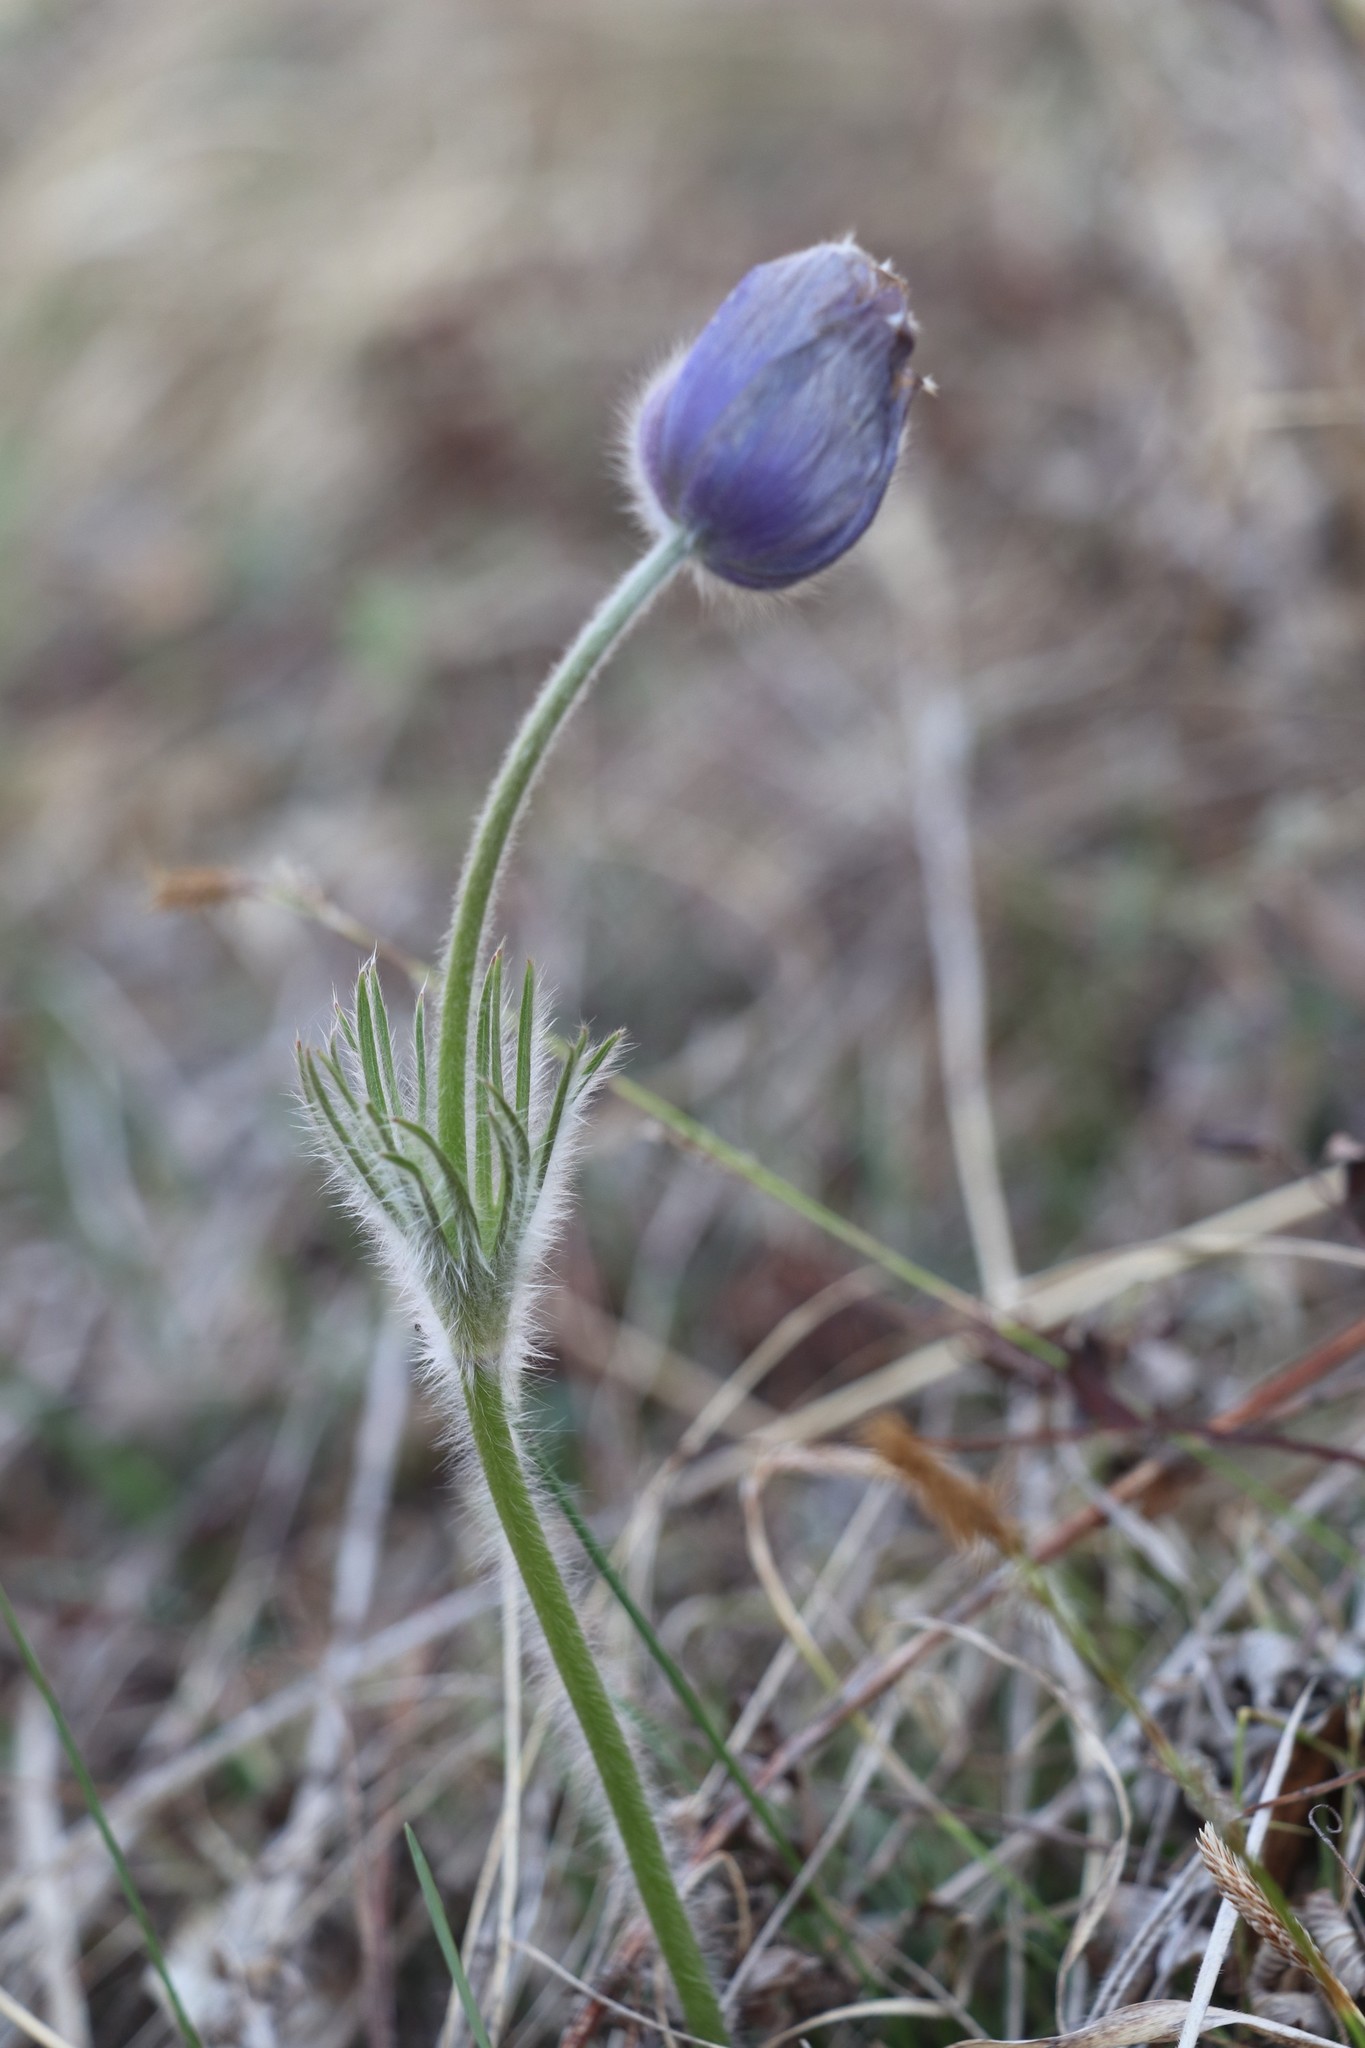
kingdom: Plantae
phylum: Tracheophyta
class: Magnoliopsida
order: Ranunculales
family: Ranunculaceae
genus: Pulsatilla
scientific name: Pulsatilla patens
